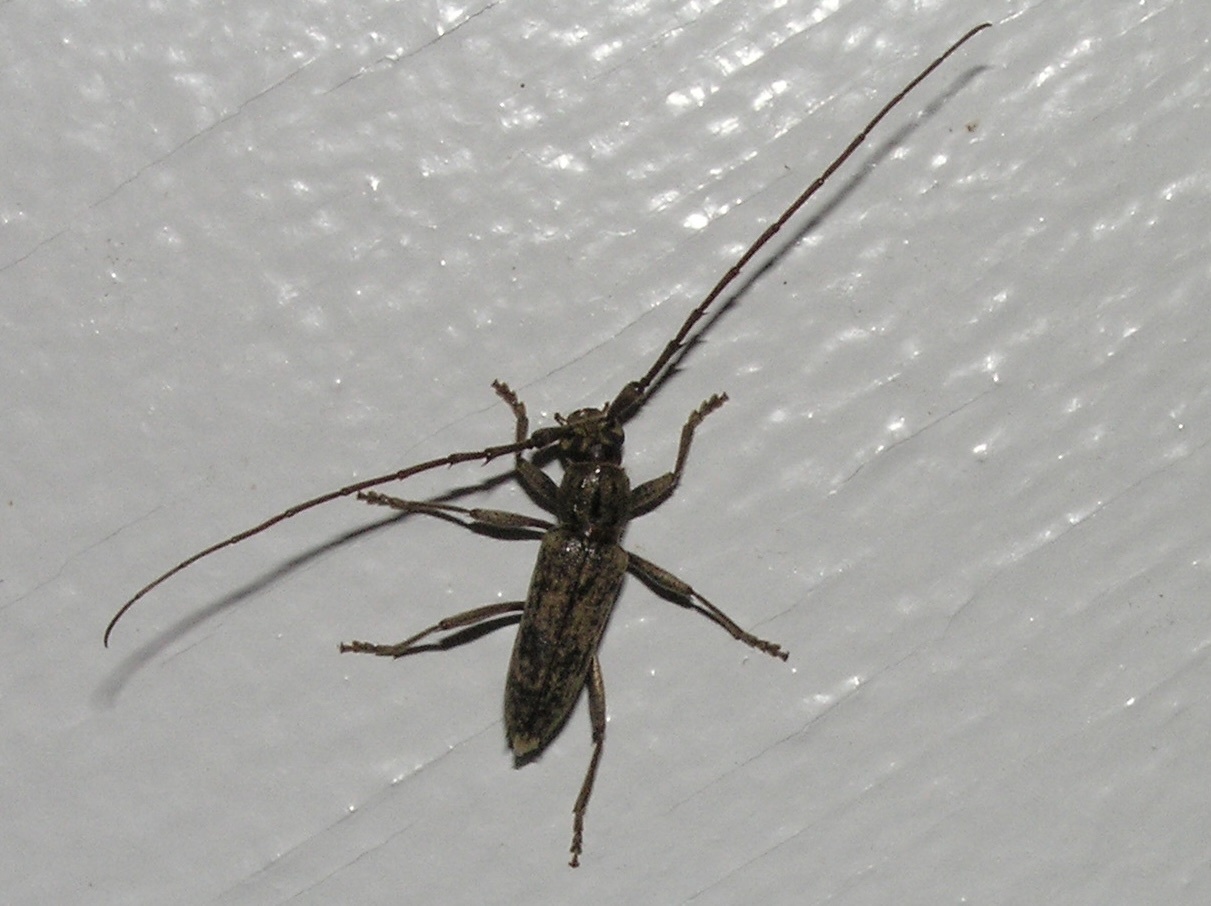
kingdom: Animalia
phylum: Arthropoda
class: Insecta
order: Coleoptera
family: Cerambycidae
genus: Elaphidion
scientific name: Elaphidion mucronatum
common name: Spined oak borer
